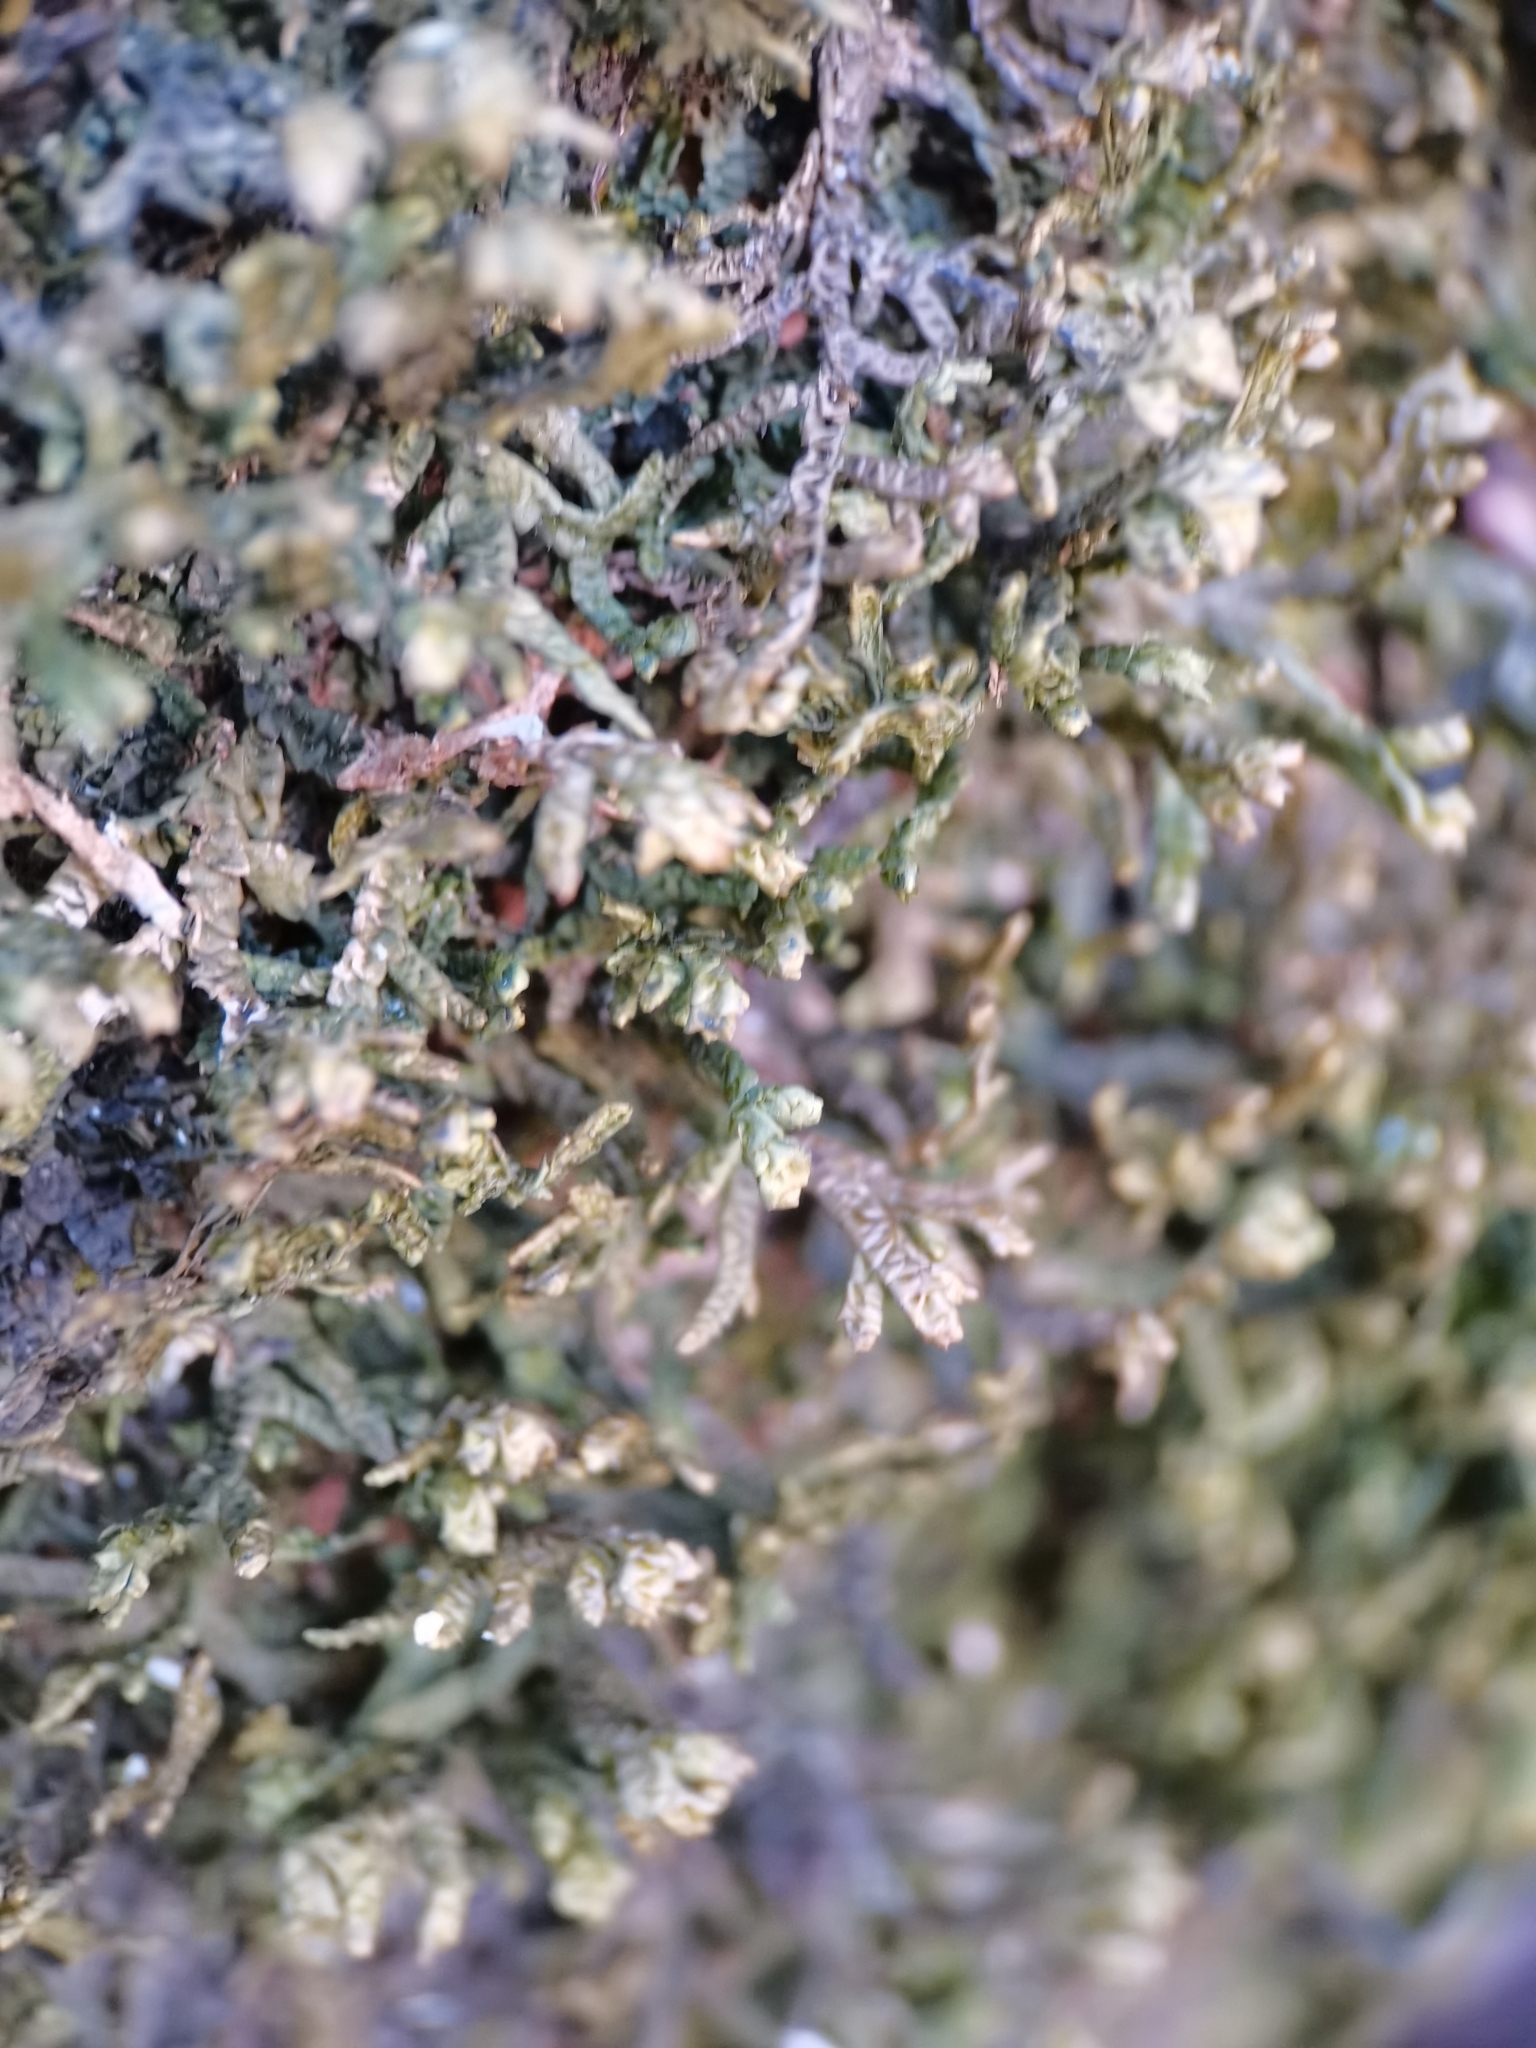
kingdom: Plantae
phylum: Marchantiophyta
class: Jungermanniopsida
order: Porellales
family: Porellaceae
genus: Porella
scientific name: Porella platyphylla
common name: Wall scalewort
